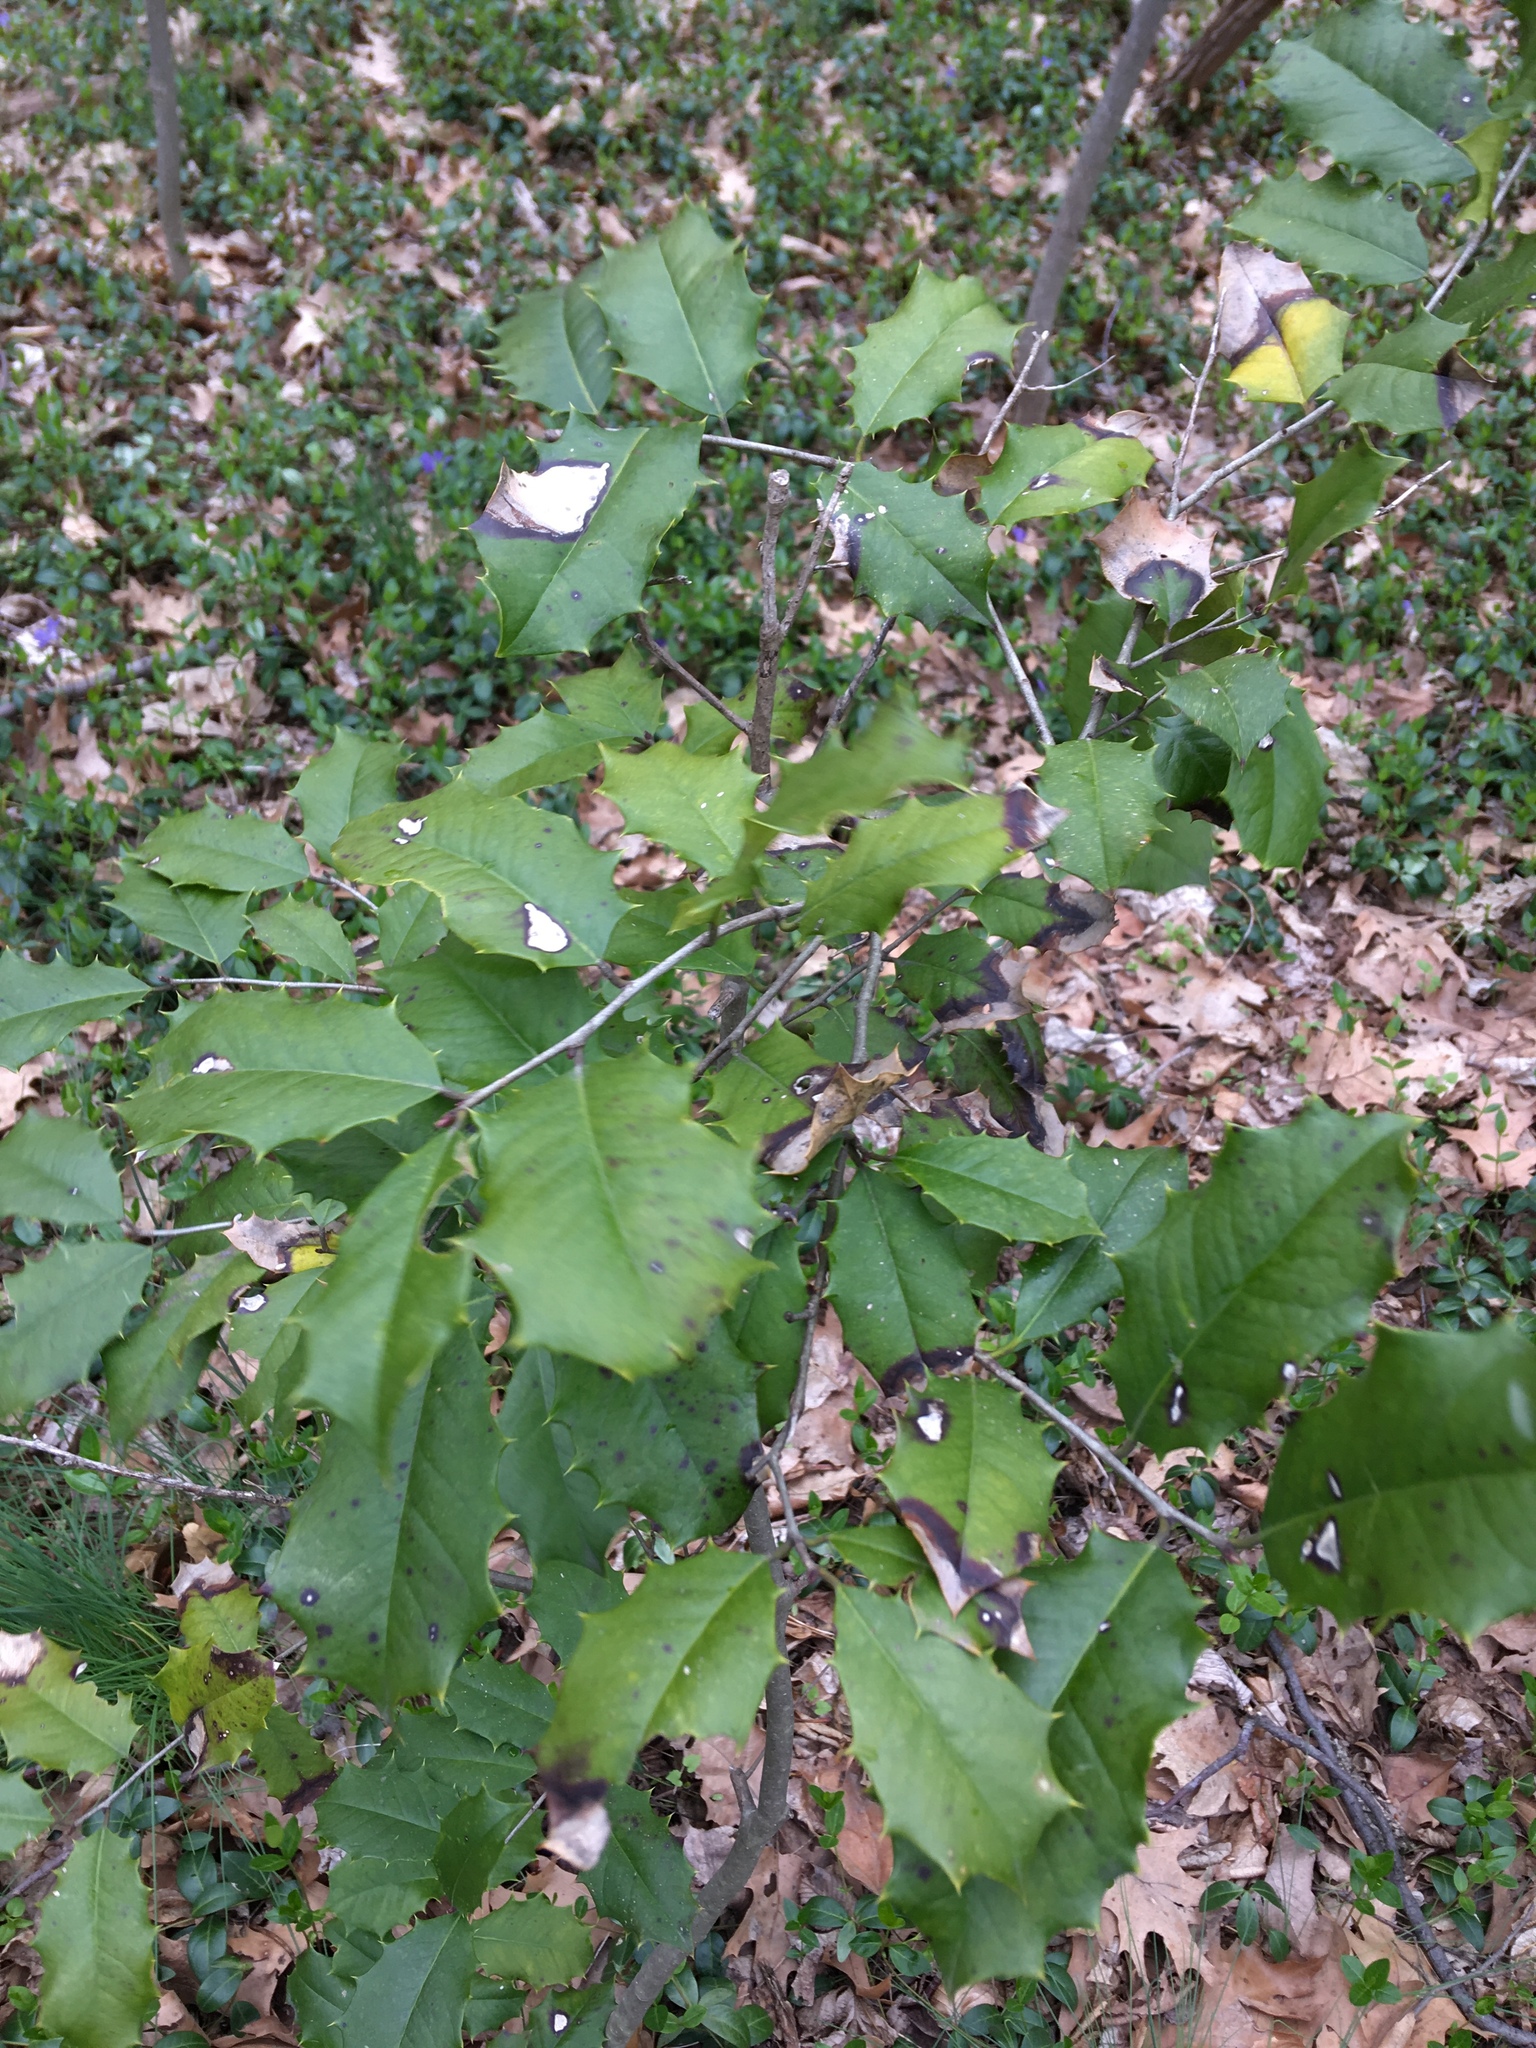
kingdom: Plantae
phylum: Tracheophyta
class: Magnoliopsida
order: Aquifoliales
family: Aquifoliaceae
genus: Ilex
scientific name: Ilex opaca
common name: American holly
